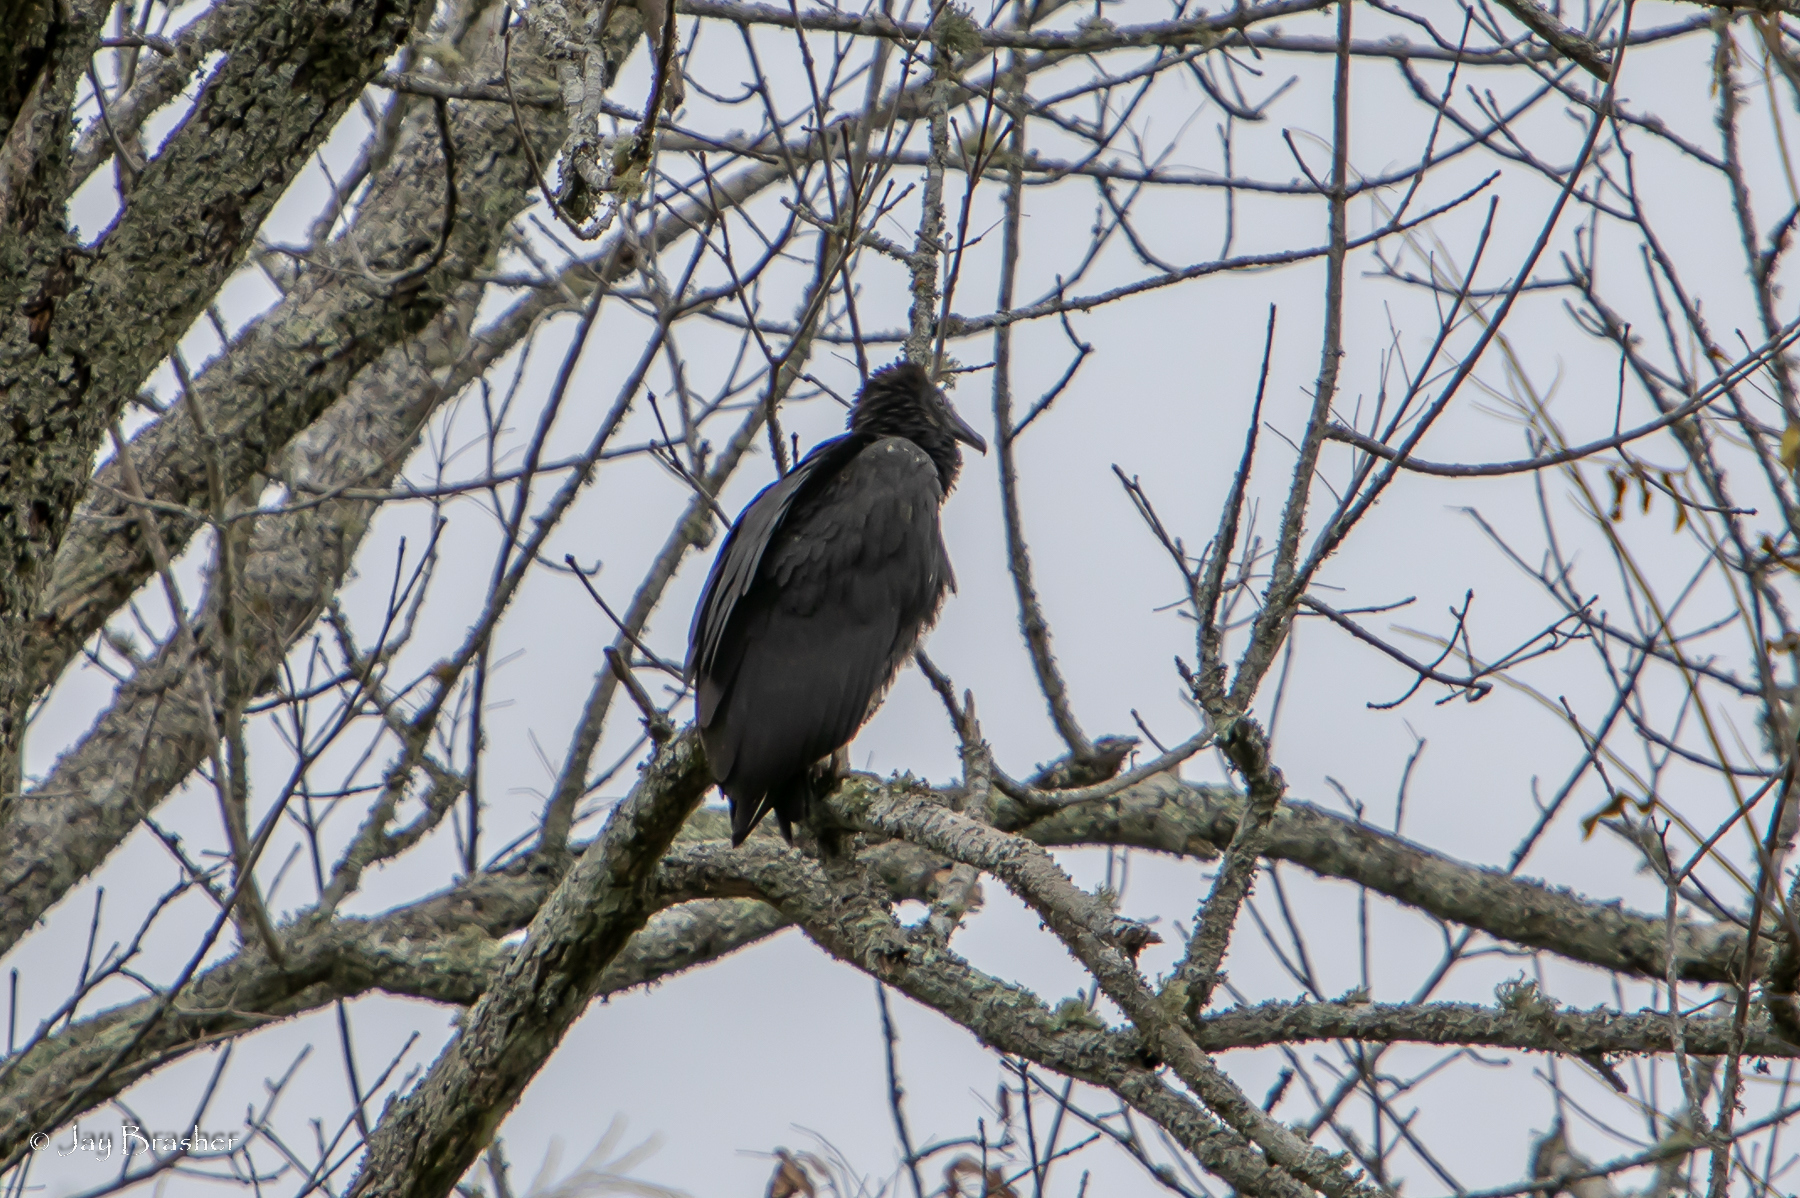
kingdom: Animalia
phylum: Chordata
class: Aves
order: Accipitriformes
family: Cathartidae
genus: Coragyps
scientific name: Coragyps atratus
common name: Black vulture
